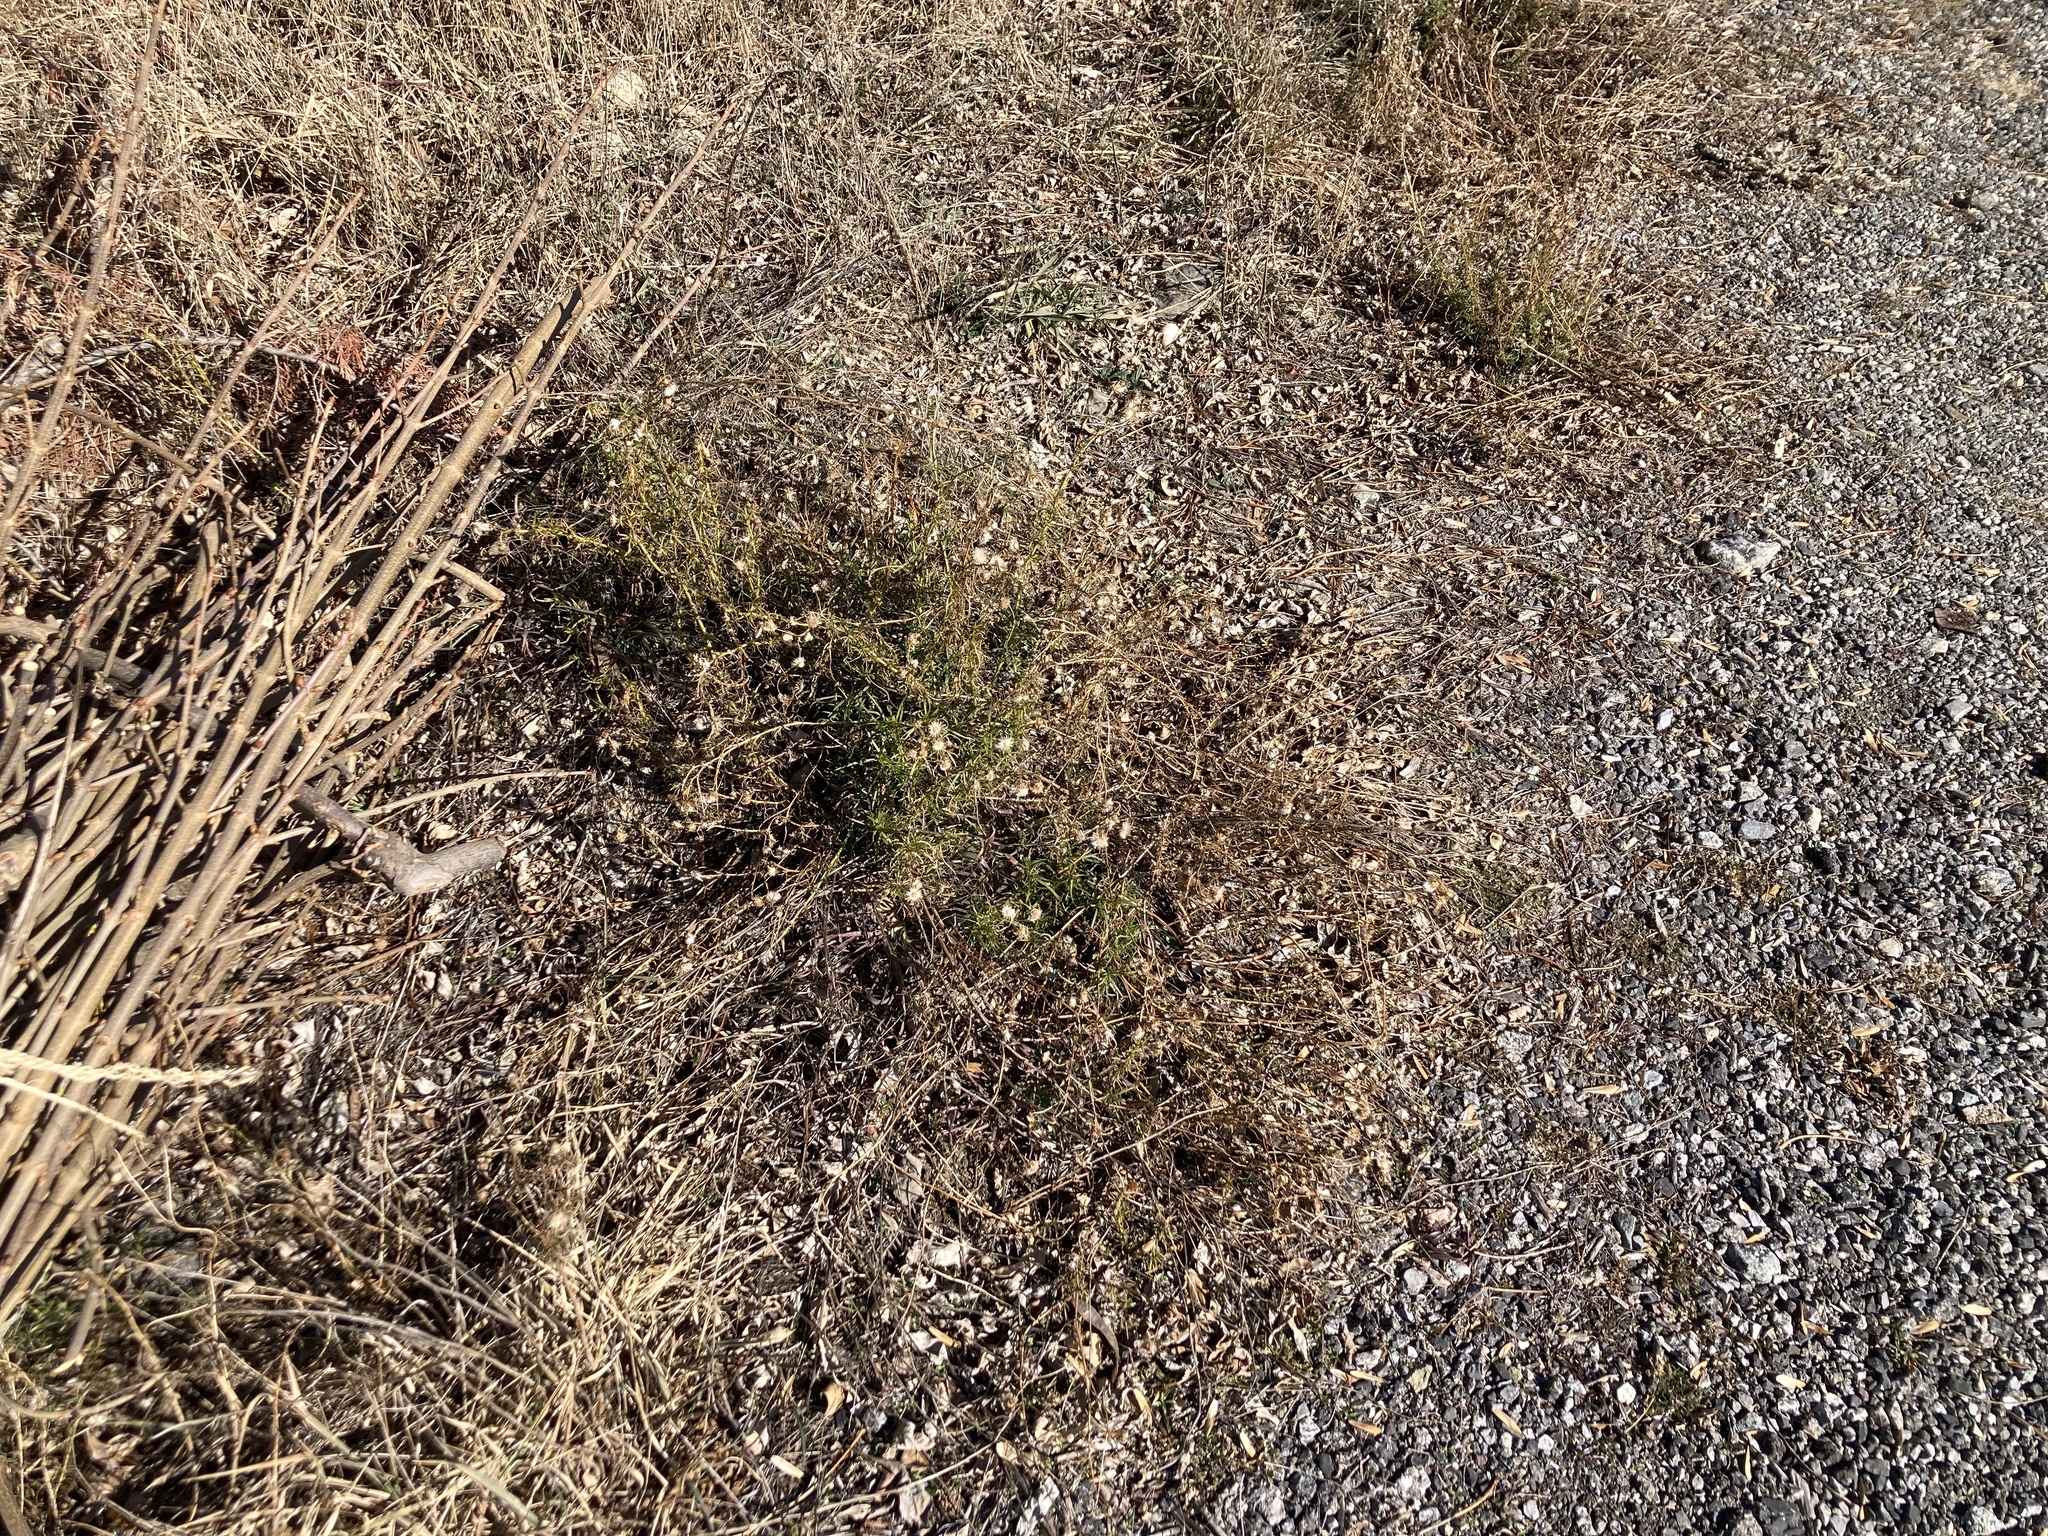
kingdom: Plantae
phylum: Tracheophyta
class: Magnoliopsida
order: Asterales
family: Asteraceae
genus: Senecio
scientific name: Senecio inaequidens
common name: Narrow-leaved ragwort
